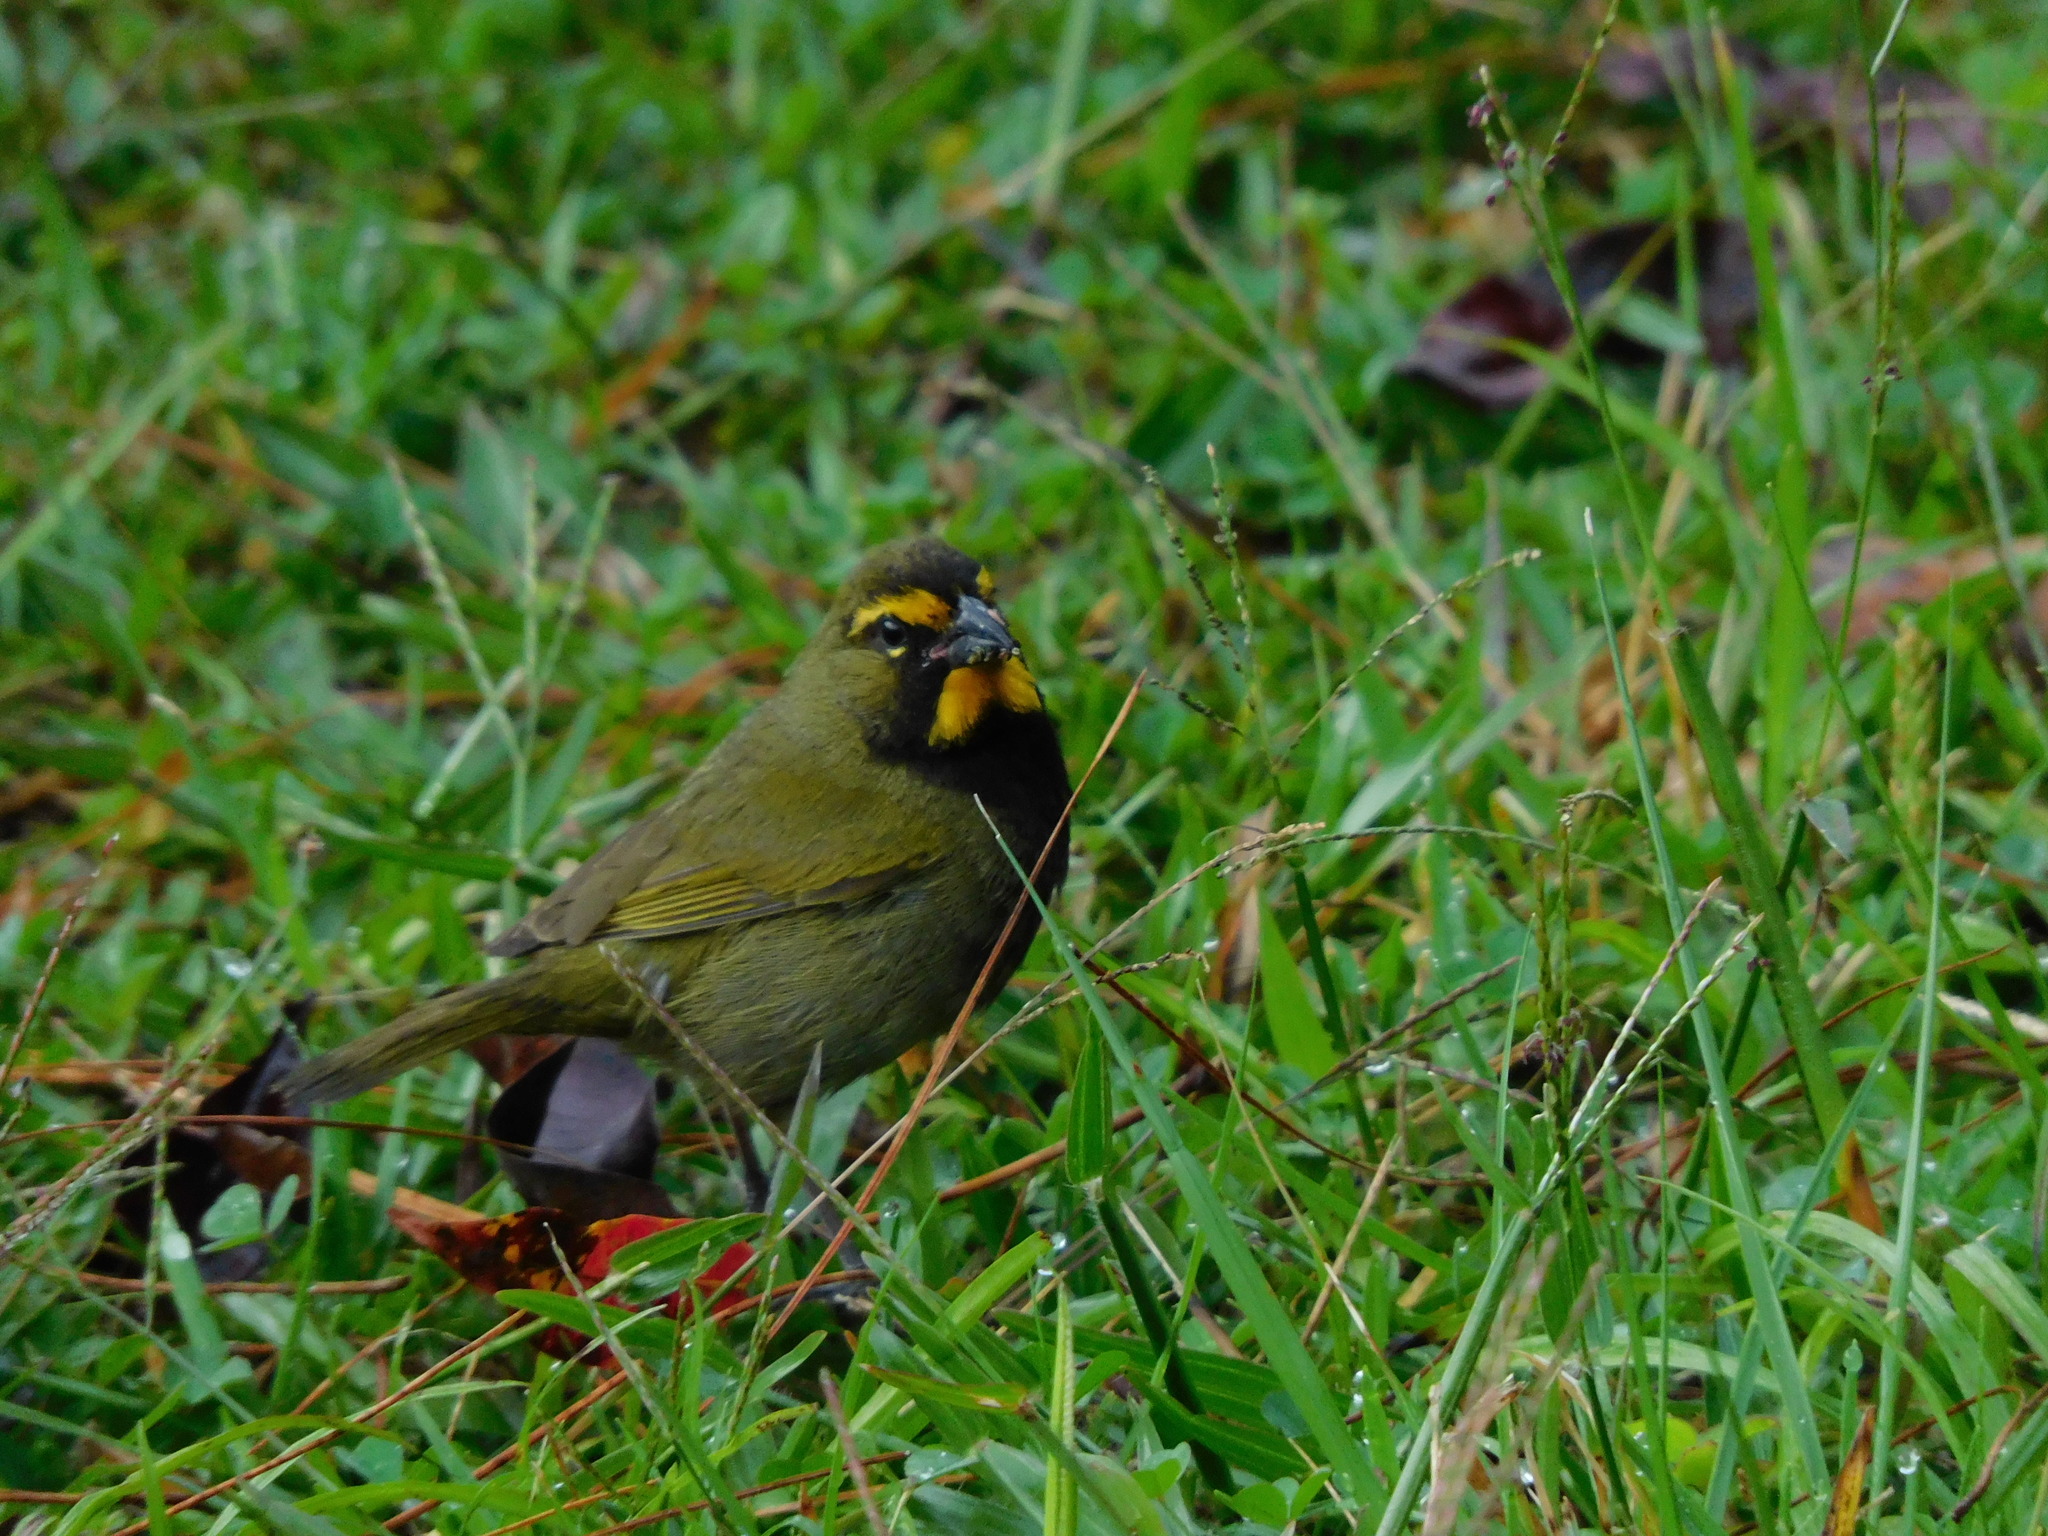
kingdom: Animalia
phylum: Chordata
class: Aves
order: Passeriformes
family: Thraupidae
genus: Tiaris
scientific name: Tiaris olivaceus
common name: Yellow-faced grassquit
